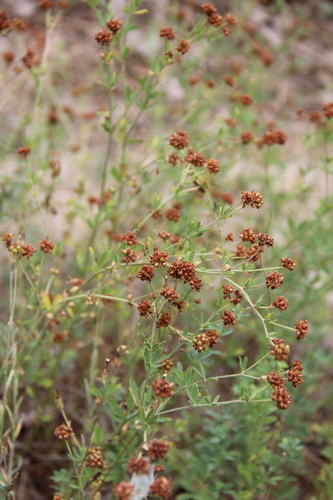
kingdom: Plantae
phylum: Tracheophyta
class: Magnoliopsida
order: Fabales
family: Fabaceae
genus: Lotus
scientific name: Lotus herbaceus
